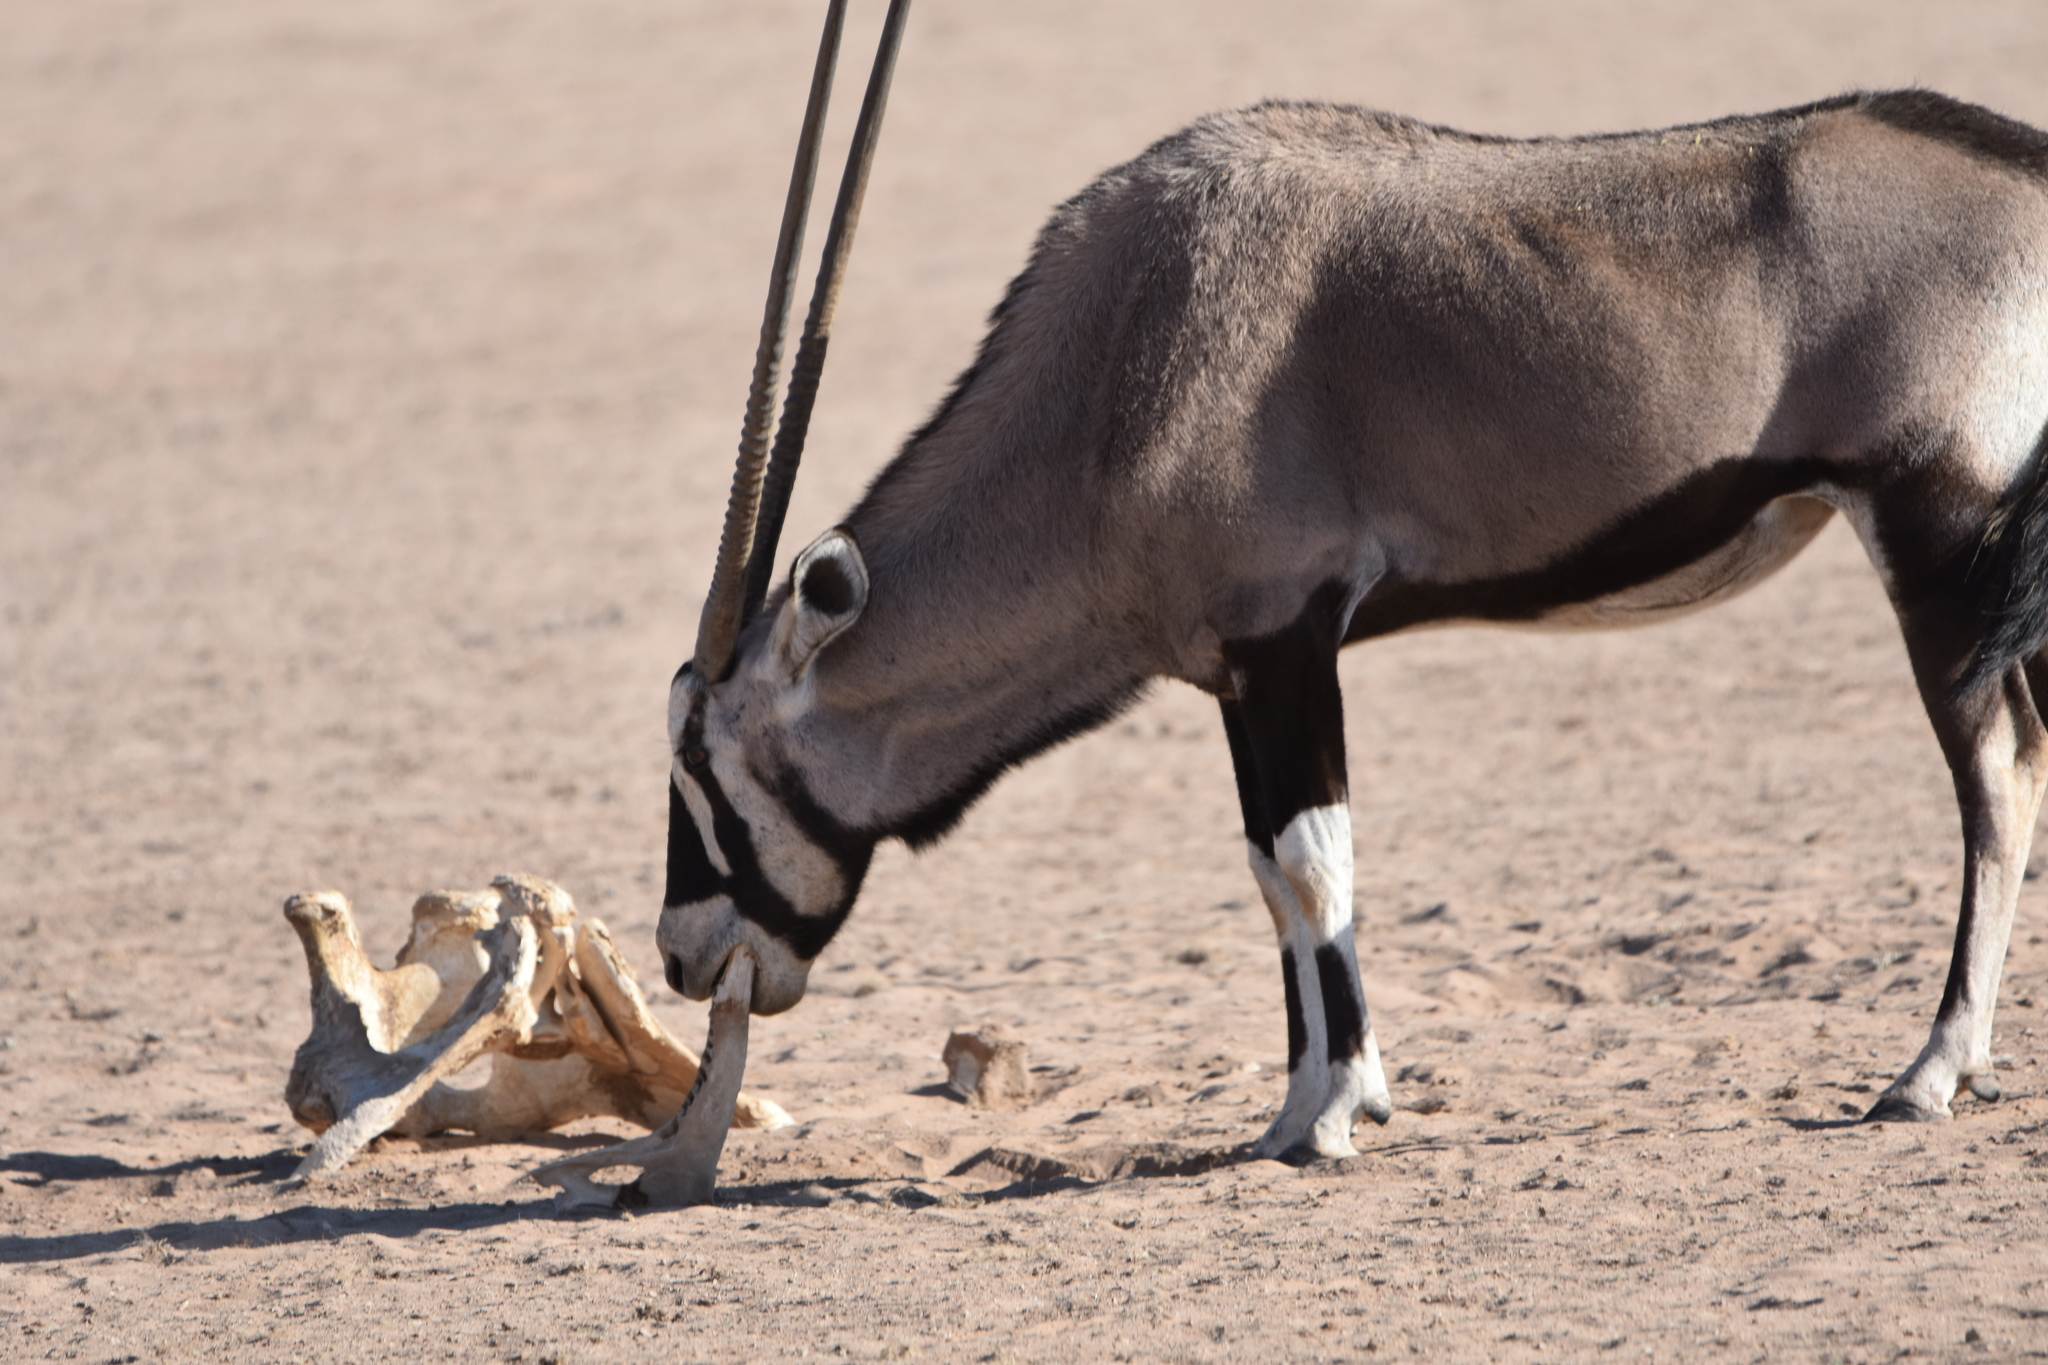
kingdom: Animalia
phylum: Chordata
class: Mammalia
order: Artiodactyla
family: Bovidae
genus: Oryx
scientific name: Oryx gazella
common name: Gemsbok
